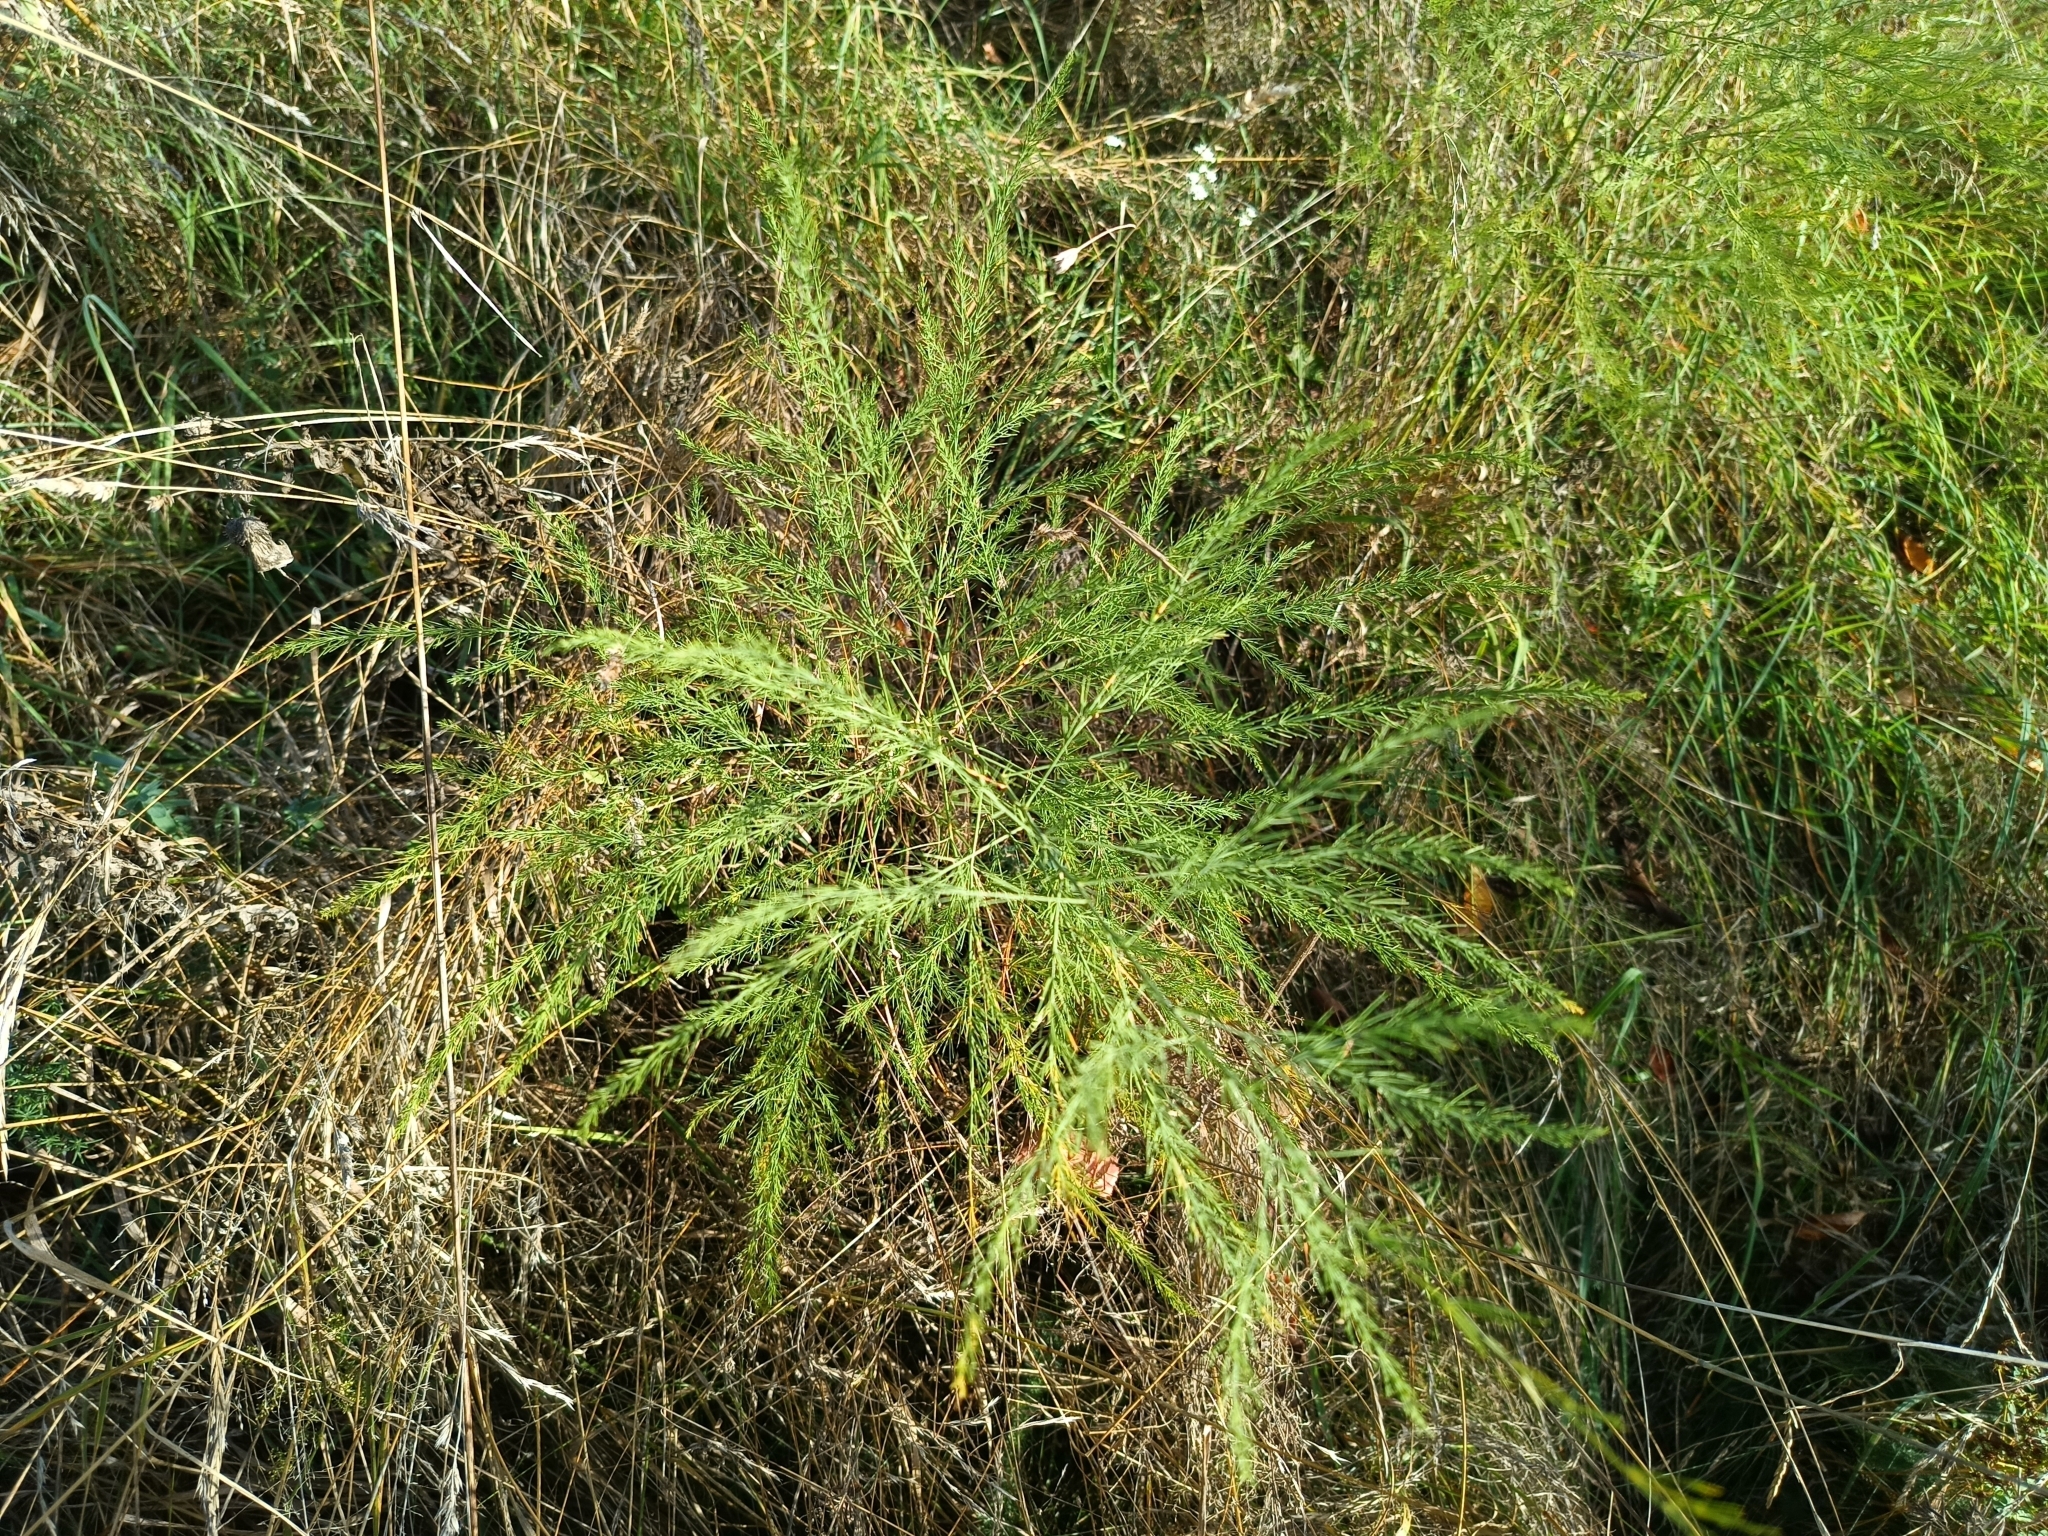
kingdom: Plantae
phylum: Tracheophyta
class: Liliopsida
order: Asparagales
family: Asparagaceae
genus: Asparagus
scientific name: Asparagus officinalis
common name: Garden asparagus
